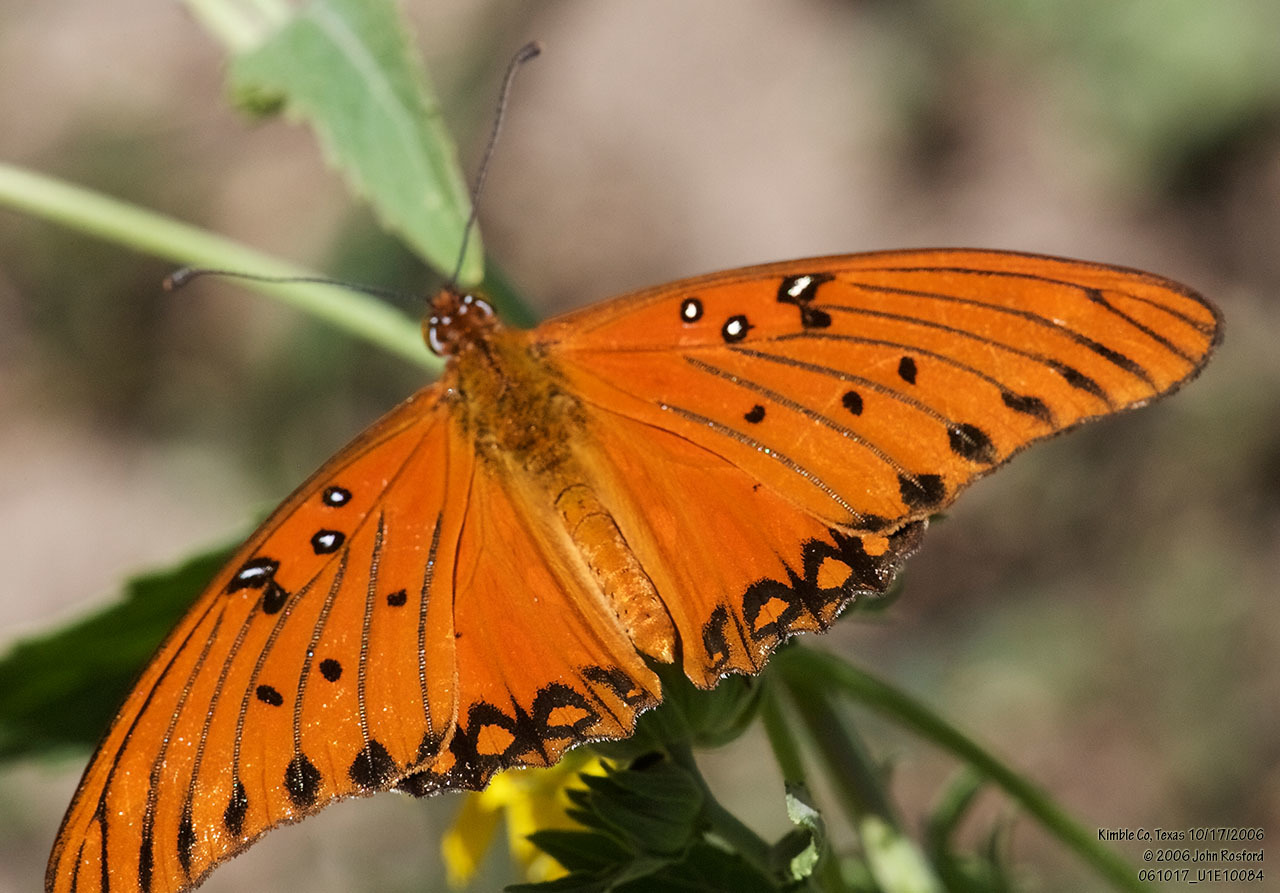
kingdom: Animalia
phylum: Arthropoda
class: Insecta
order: Lepidoptera
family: Nymphalidae
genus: Dione
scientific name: Dione vanillae
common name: Gulf fritillary
